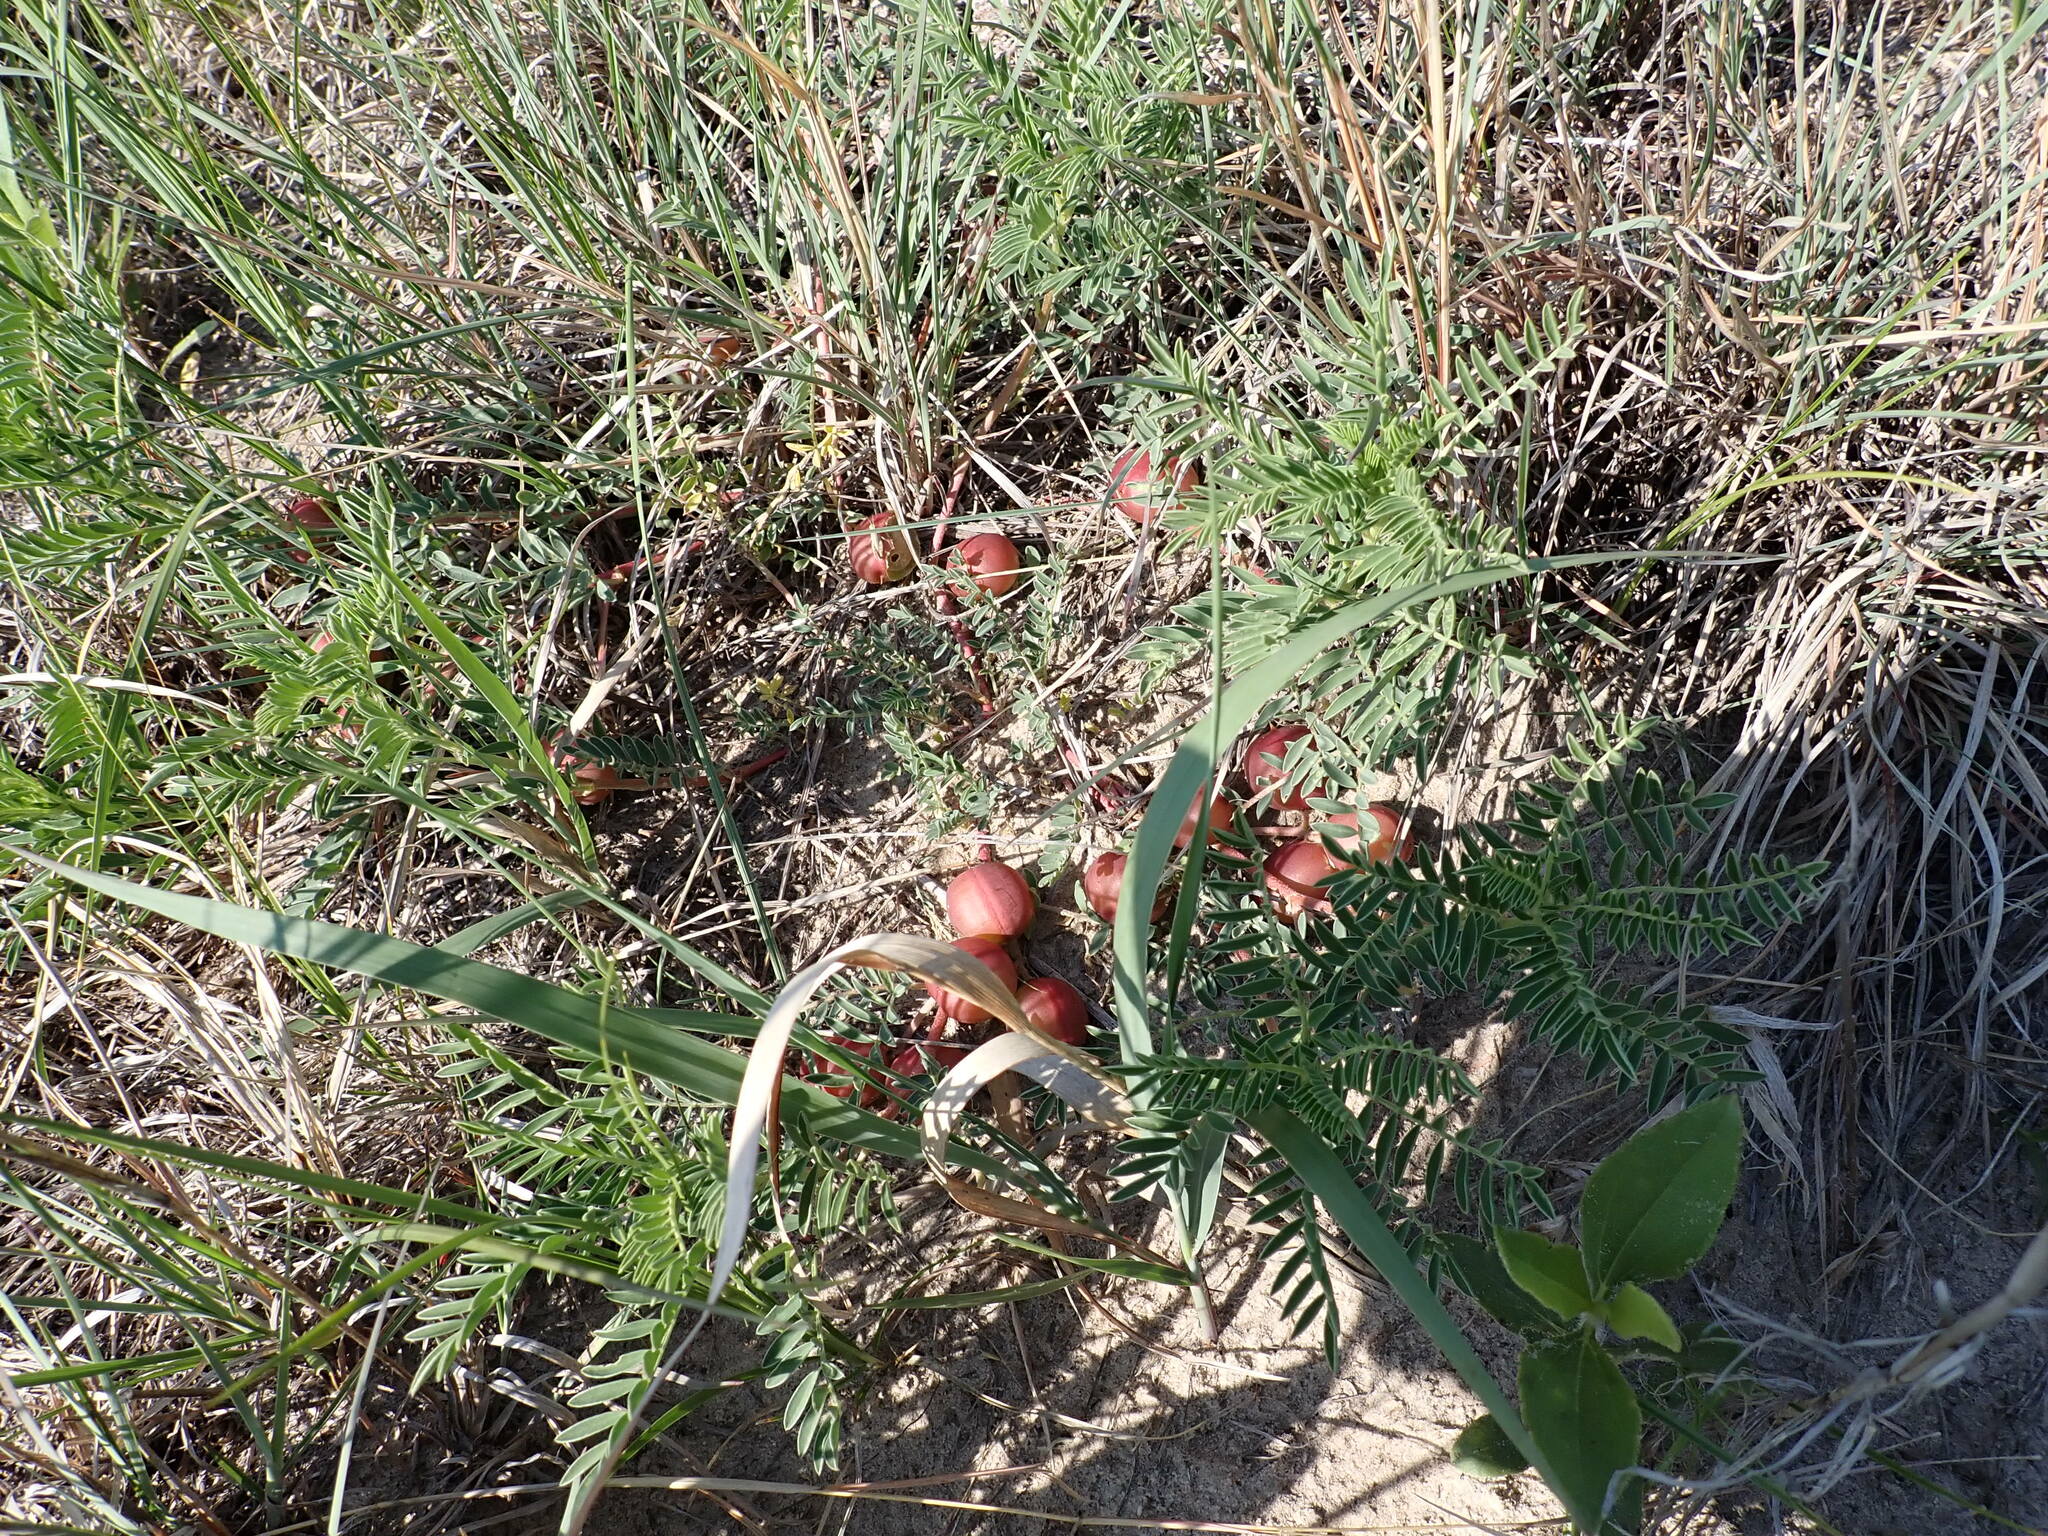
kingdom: Plantae
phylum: Tracheophyta
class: Magnoliopsida
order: Fabales
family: Fabaceae
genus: Astragalus
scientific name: Astragalus crassicarpus
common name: Ground-plum milk-vetch
